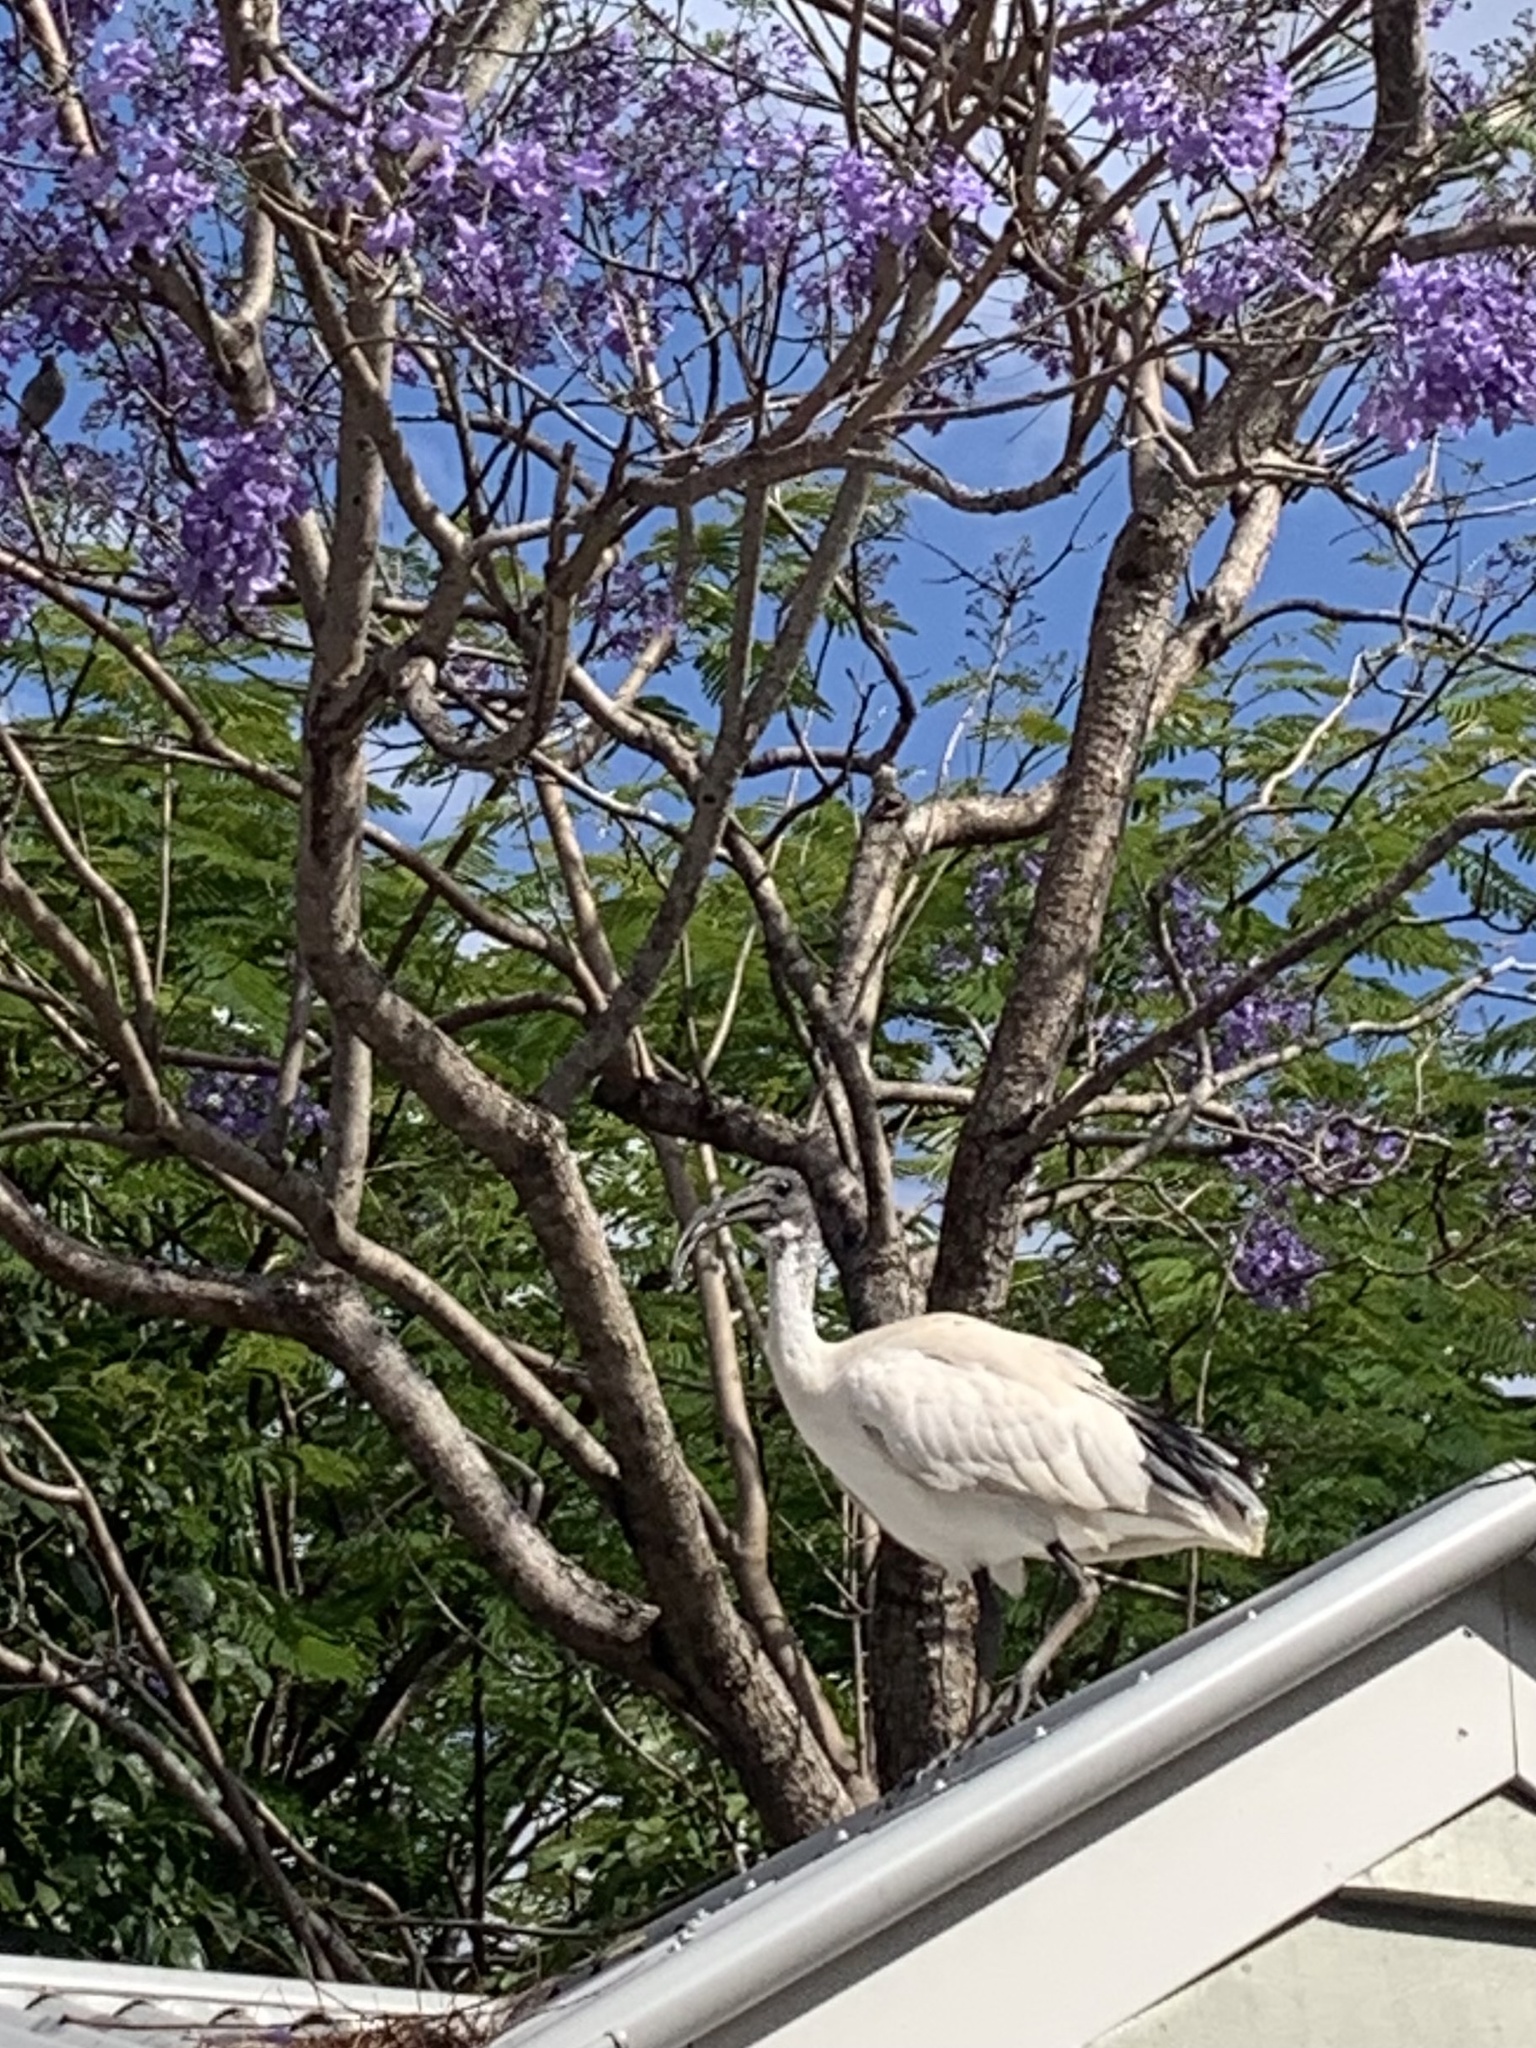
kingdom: Animalia
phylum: Chordata
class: Aves
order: Pelecaniformes
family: Threskiornithidae
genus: Threskiornis
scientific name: Threskiornis molucca
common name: Australian white ibis
